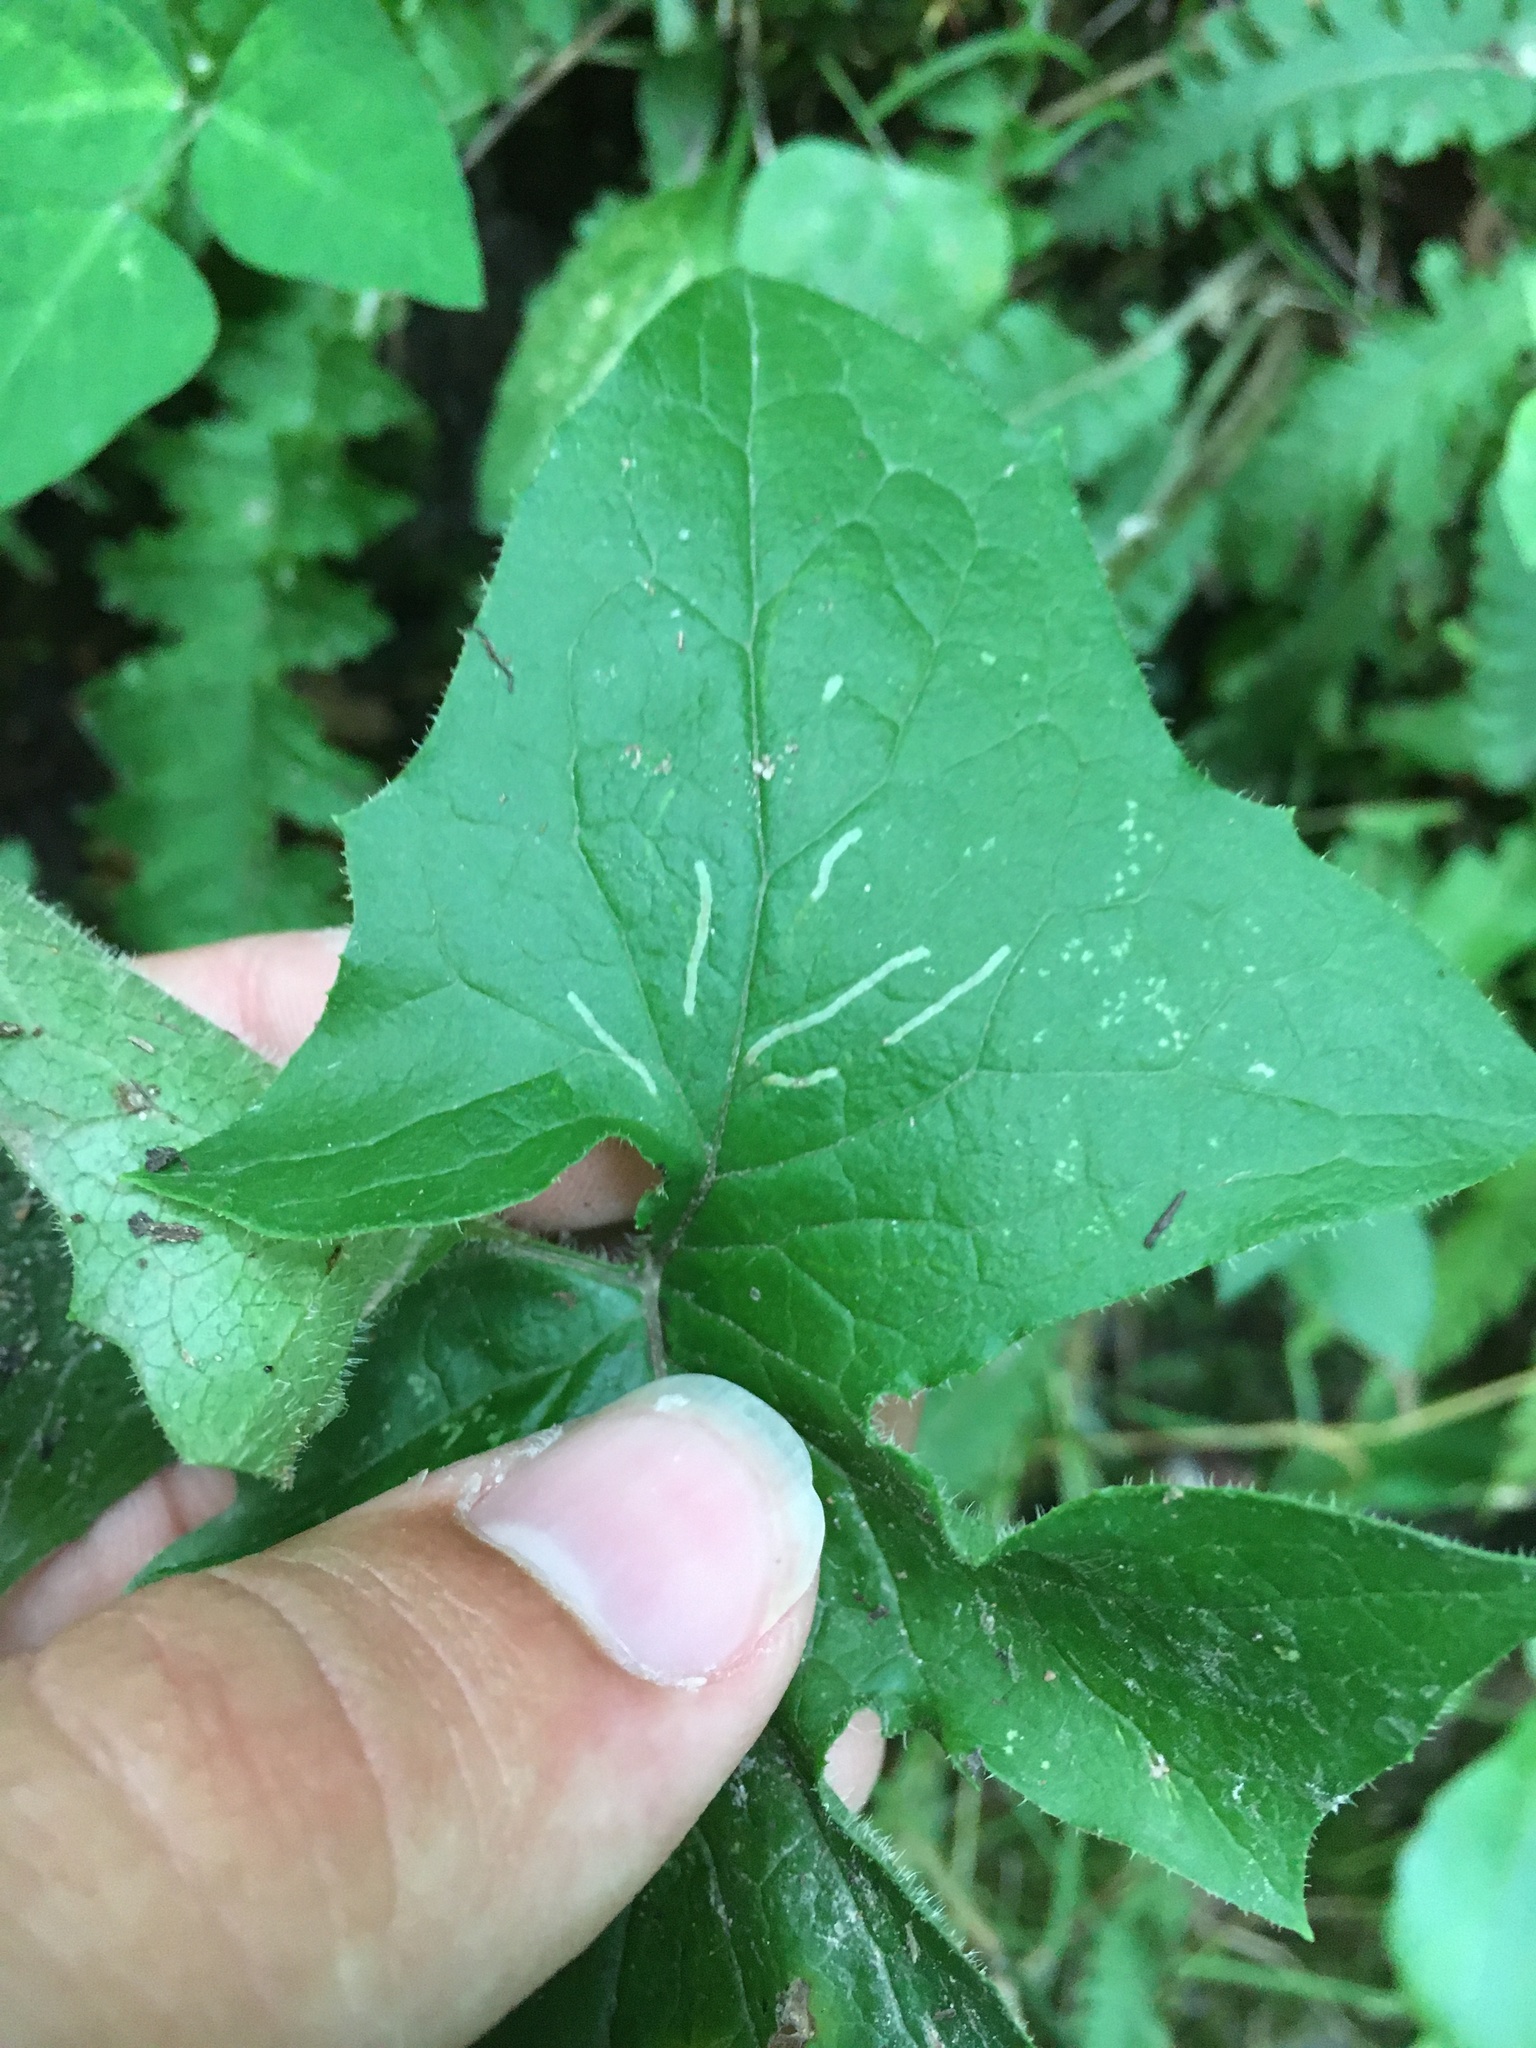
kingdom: Animalia
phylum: Arthropoda
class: Insecta
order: Diptera
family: Agromyzidae
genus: Ophiomyia
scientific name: Ophiomyia congregata
